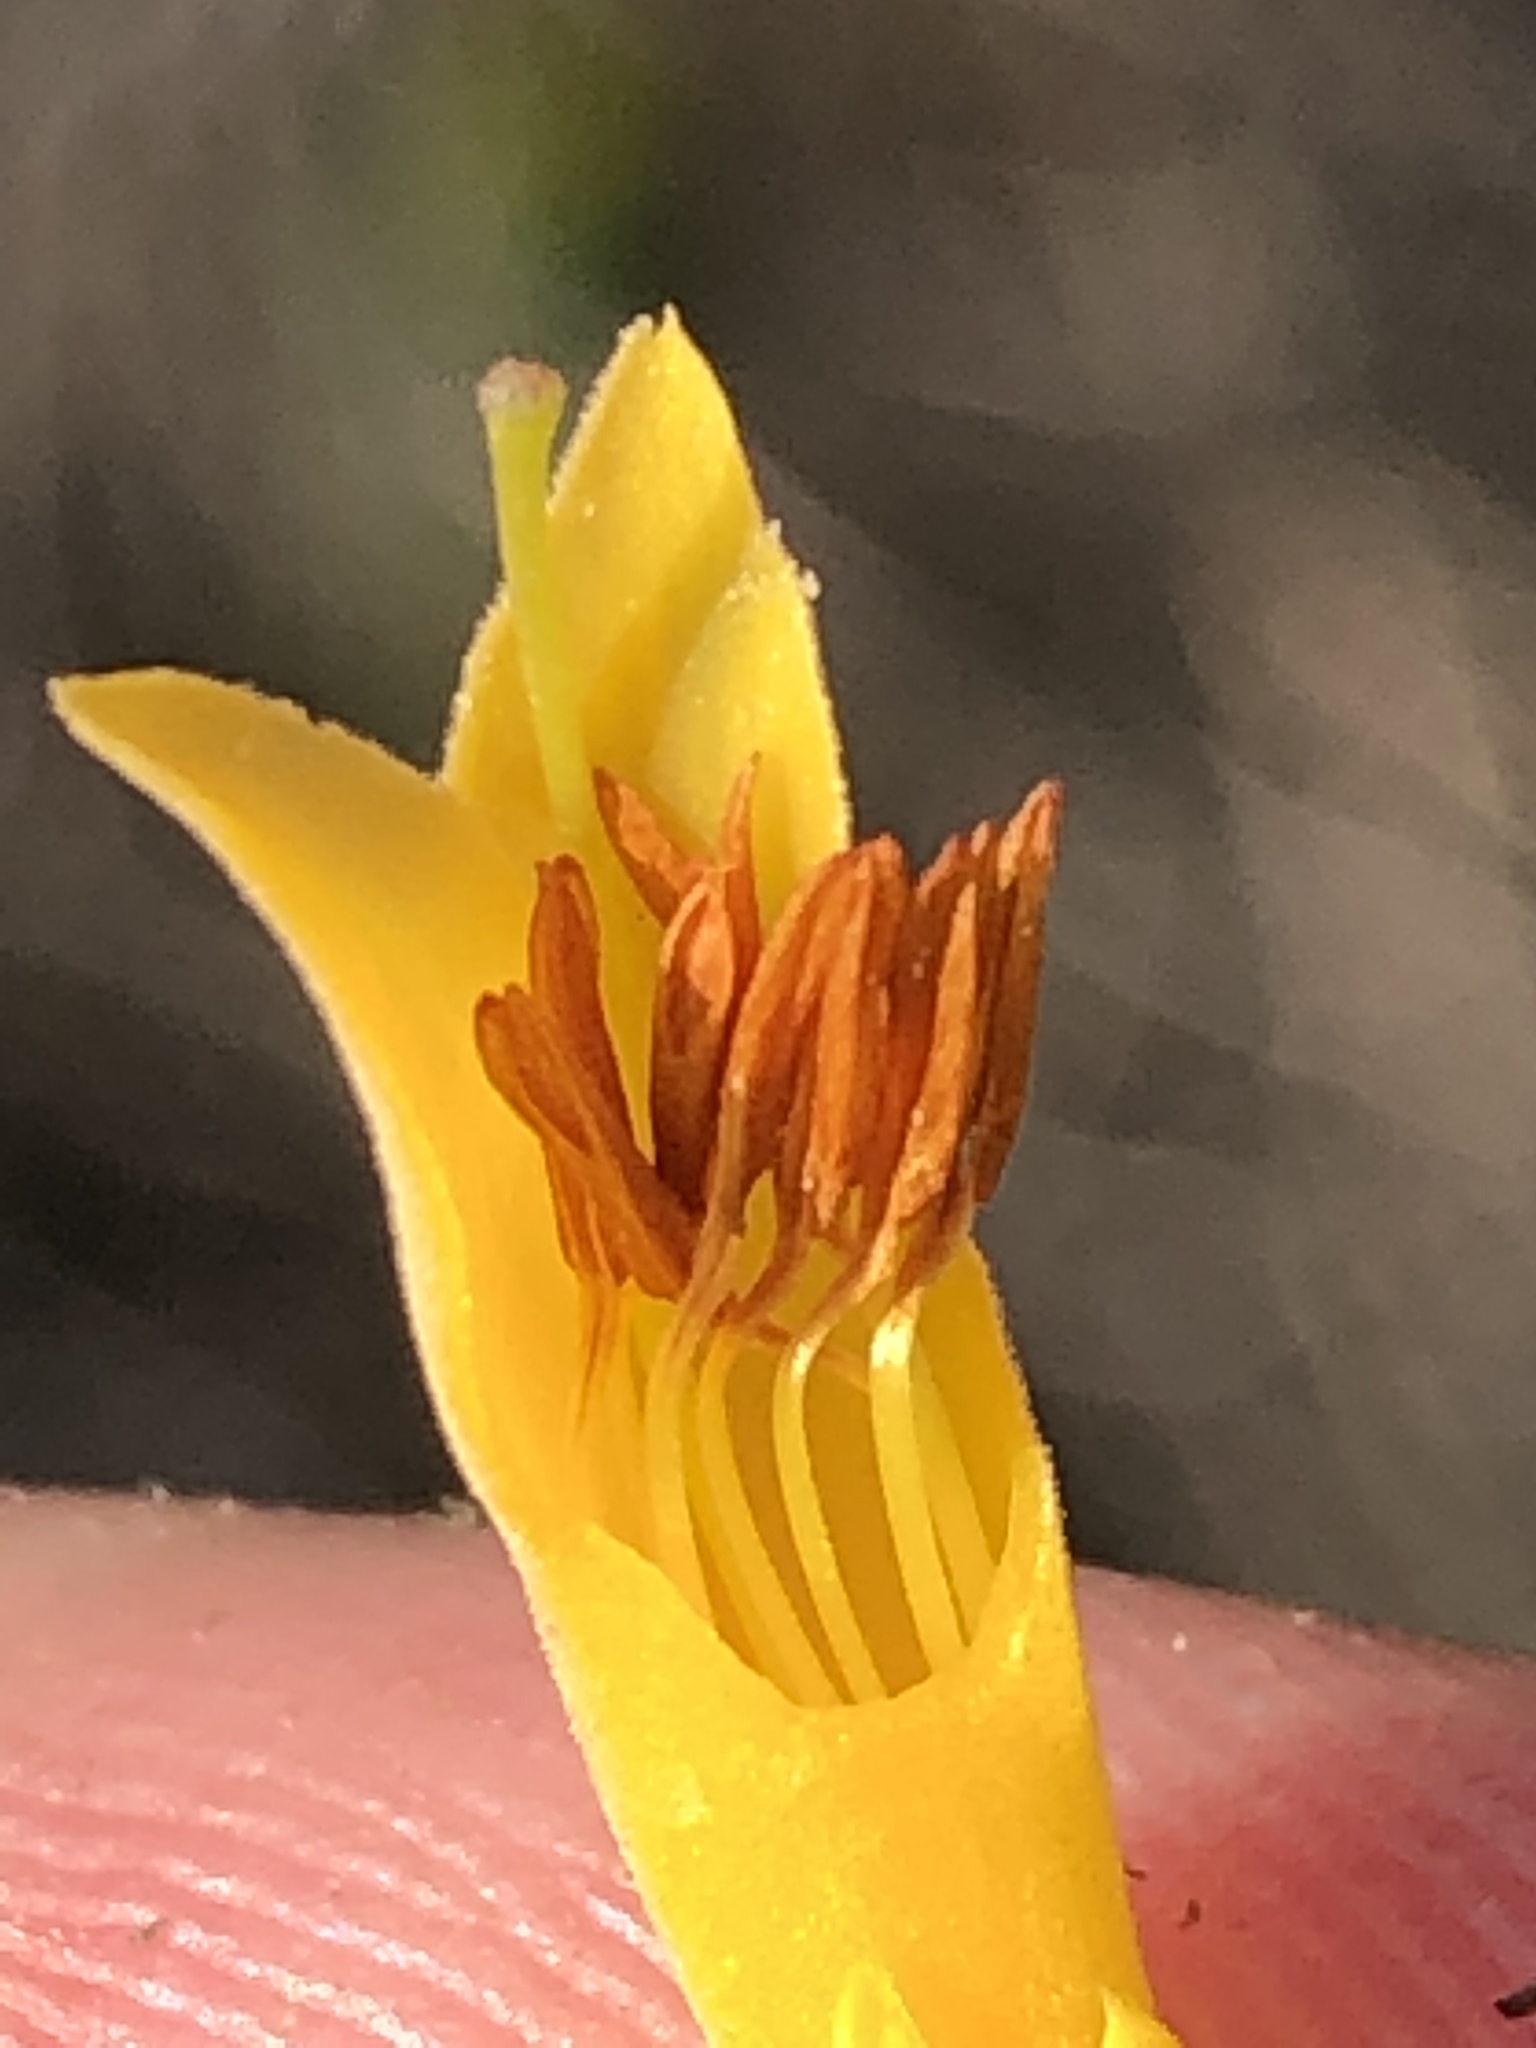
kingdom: Plantae
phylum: Tracheophyta
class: Magnoliopsida
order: Ericales
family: Ericaceae
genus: Erica
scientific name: Erica grandiflora
